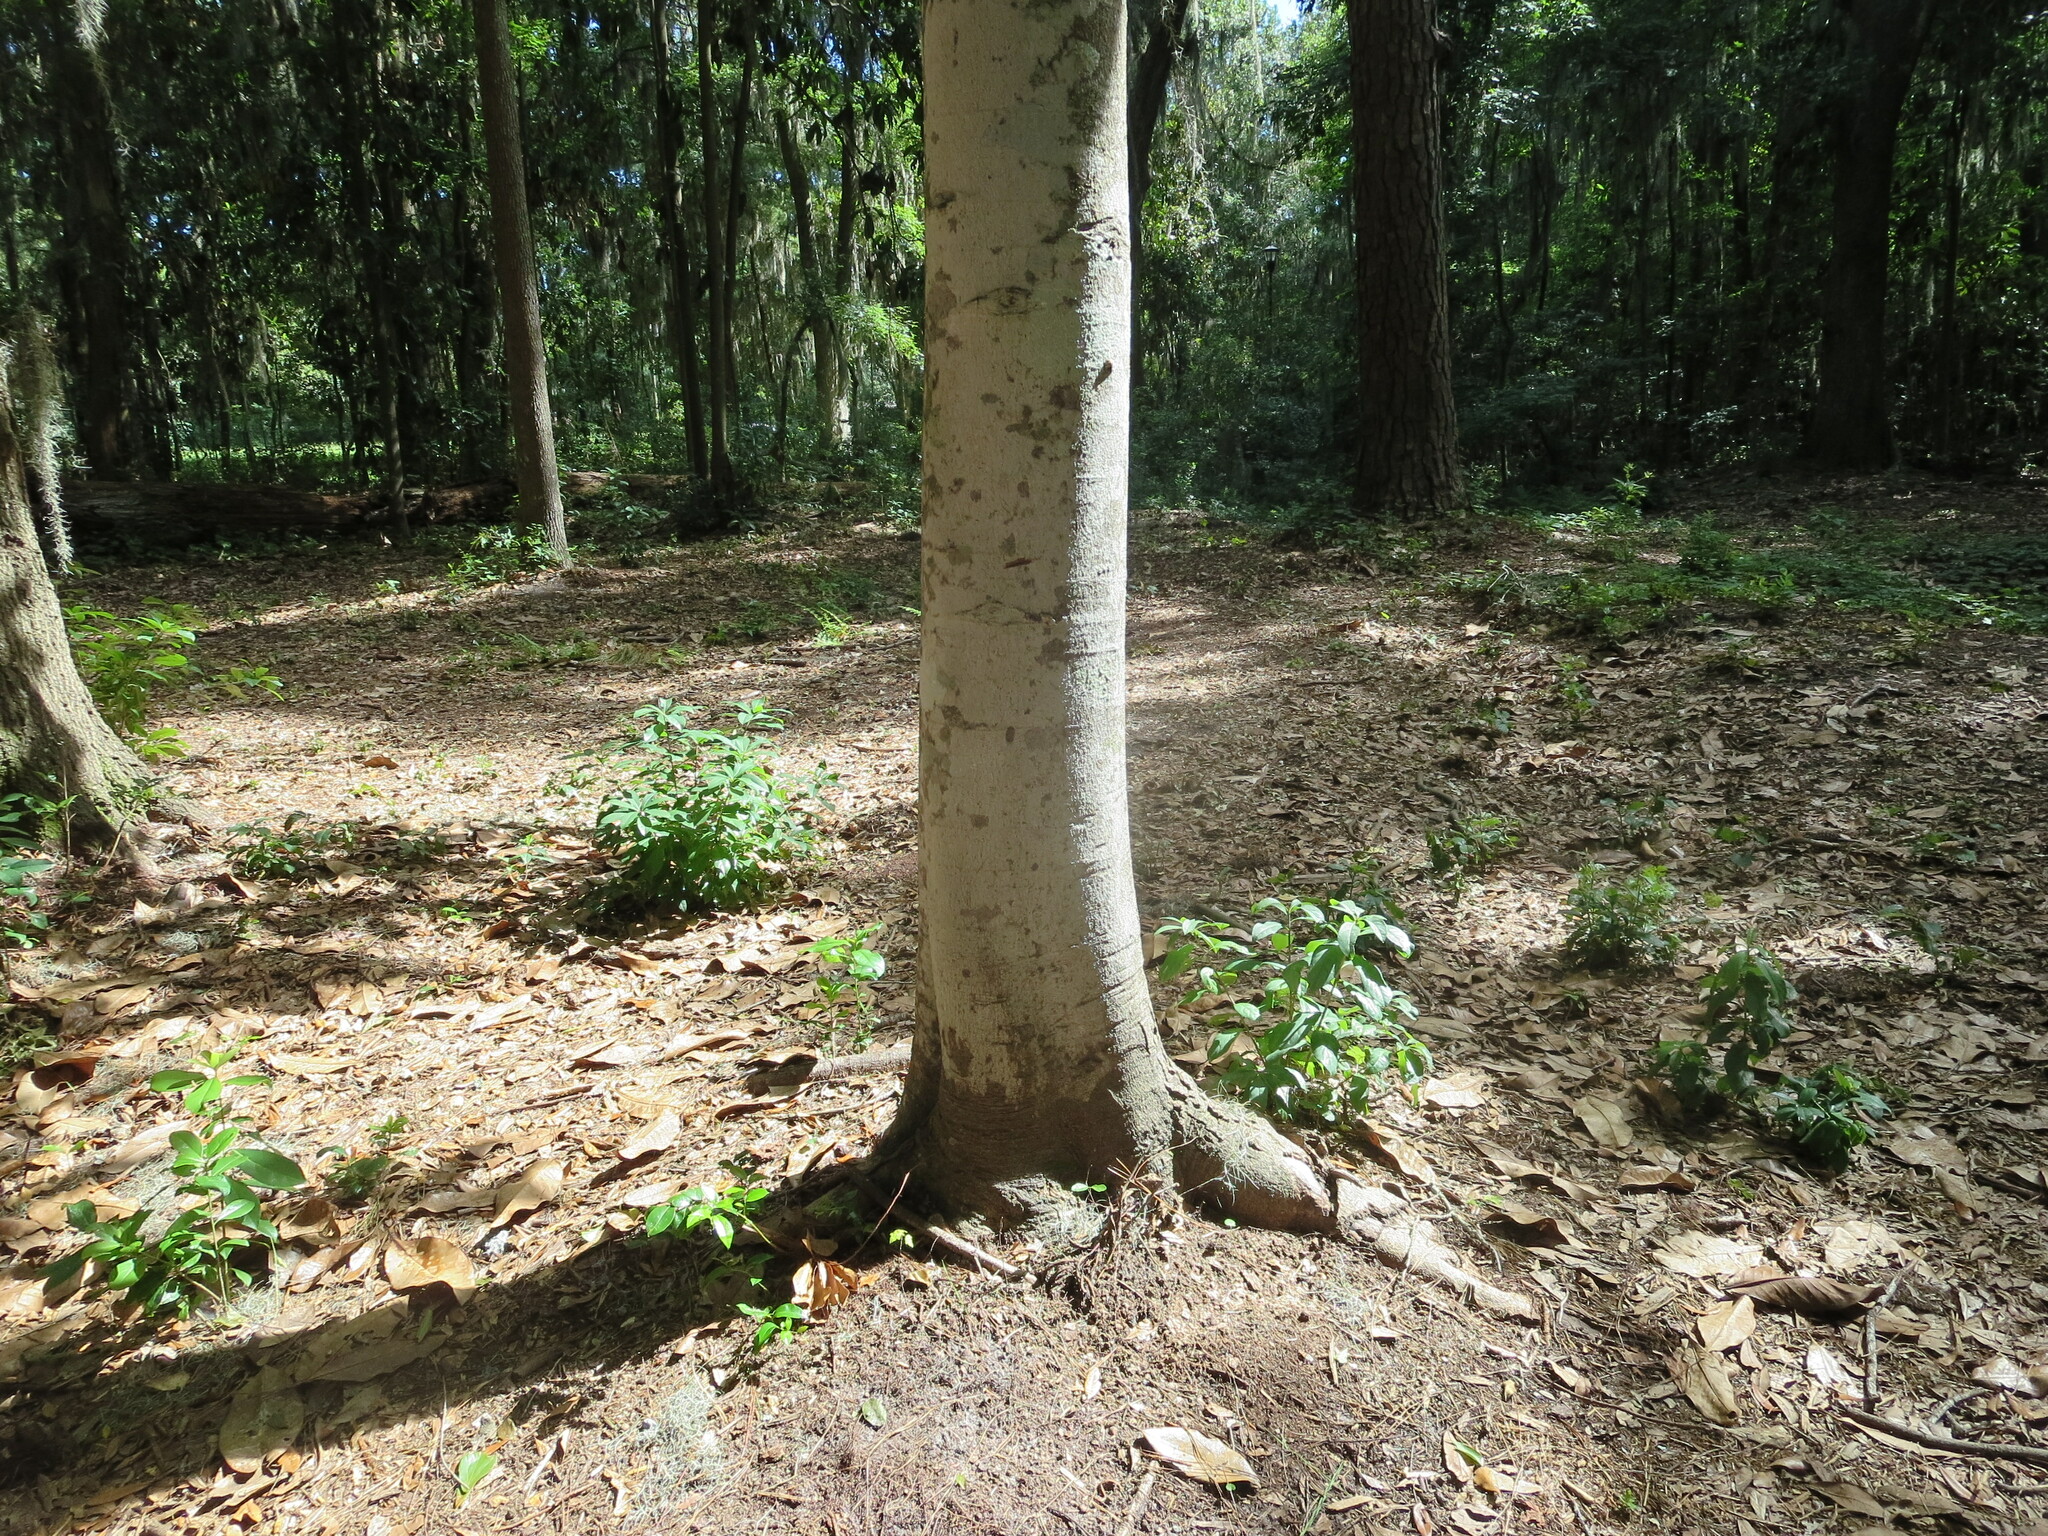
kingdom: Plantae
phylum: Tracheophyta
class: Magnoliopsida
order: Magnoliales
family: Magnoliaceae
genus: Magnolia
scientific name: Magnolia grandiflora
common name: Southern magnolia
